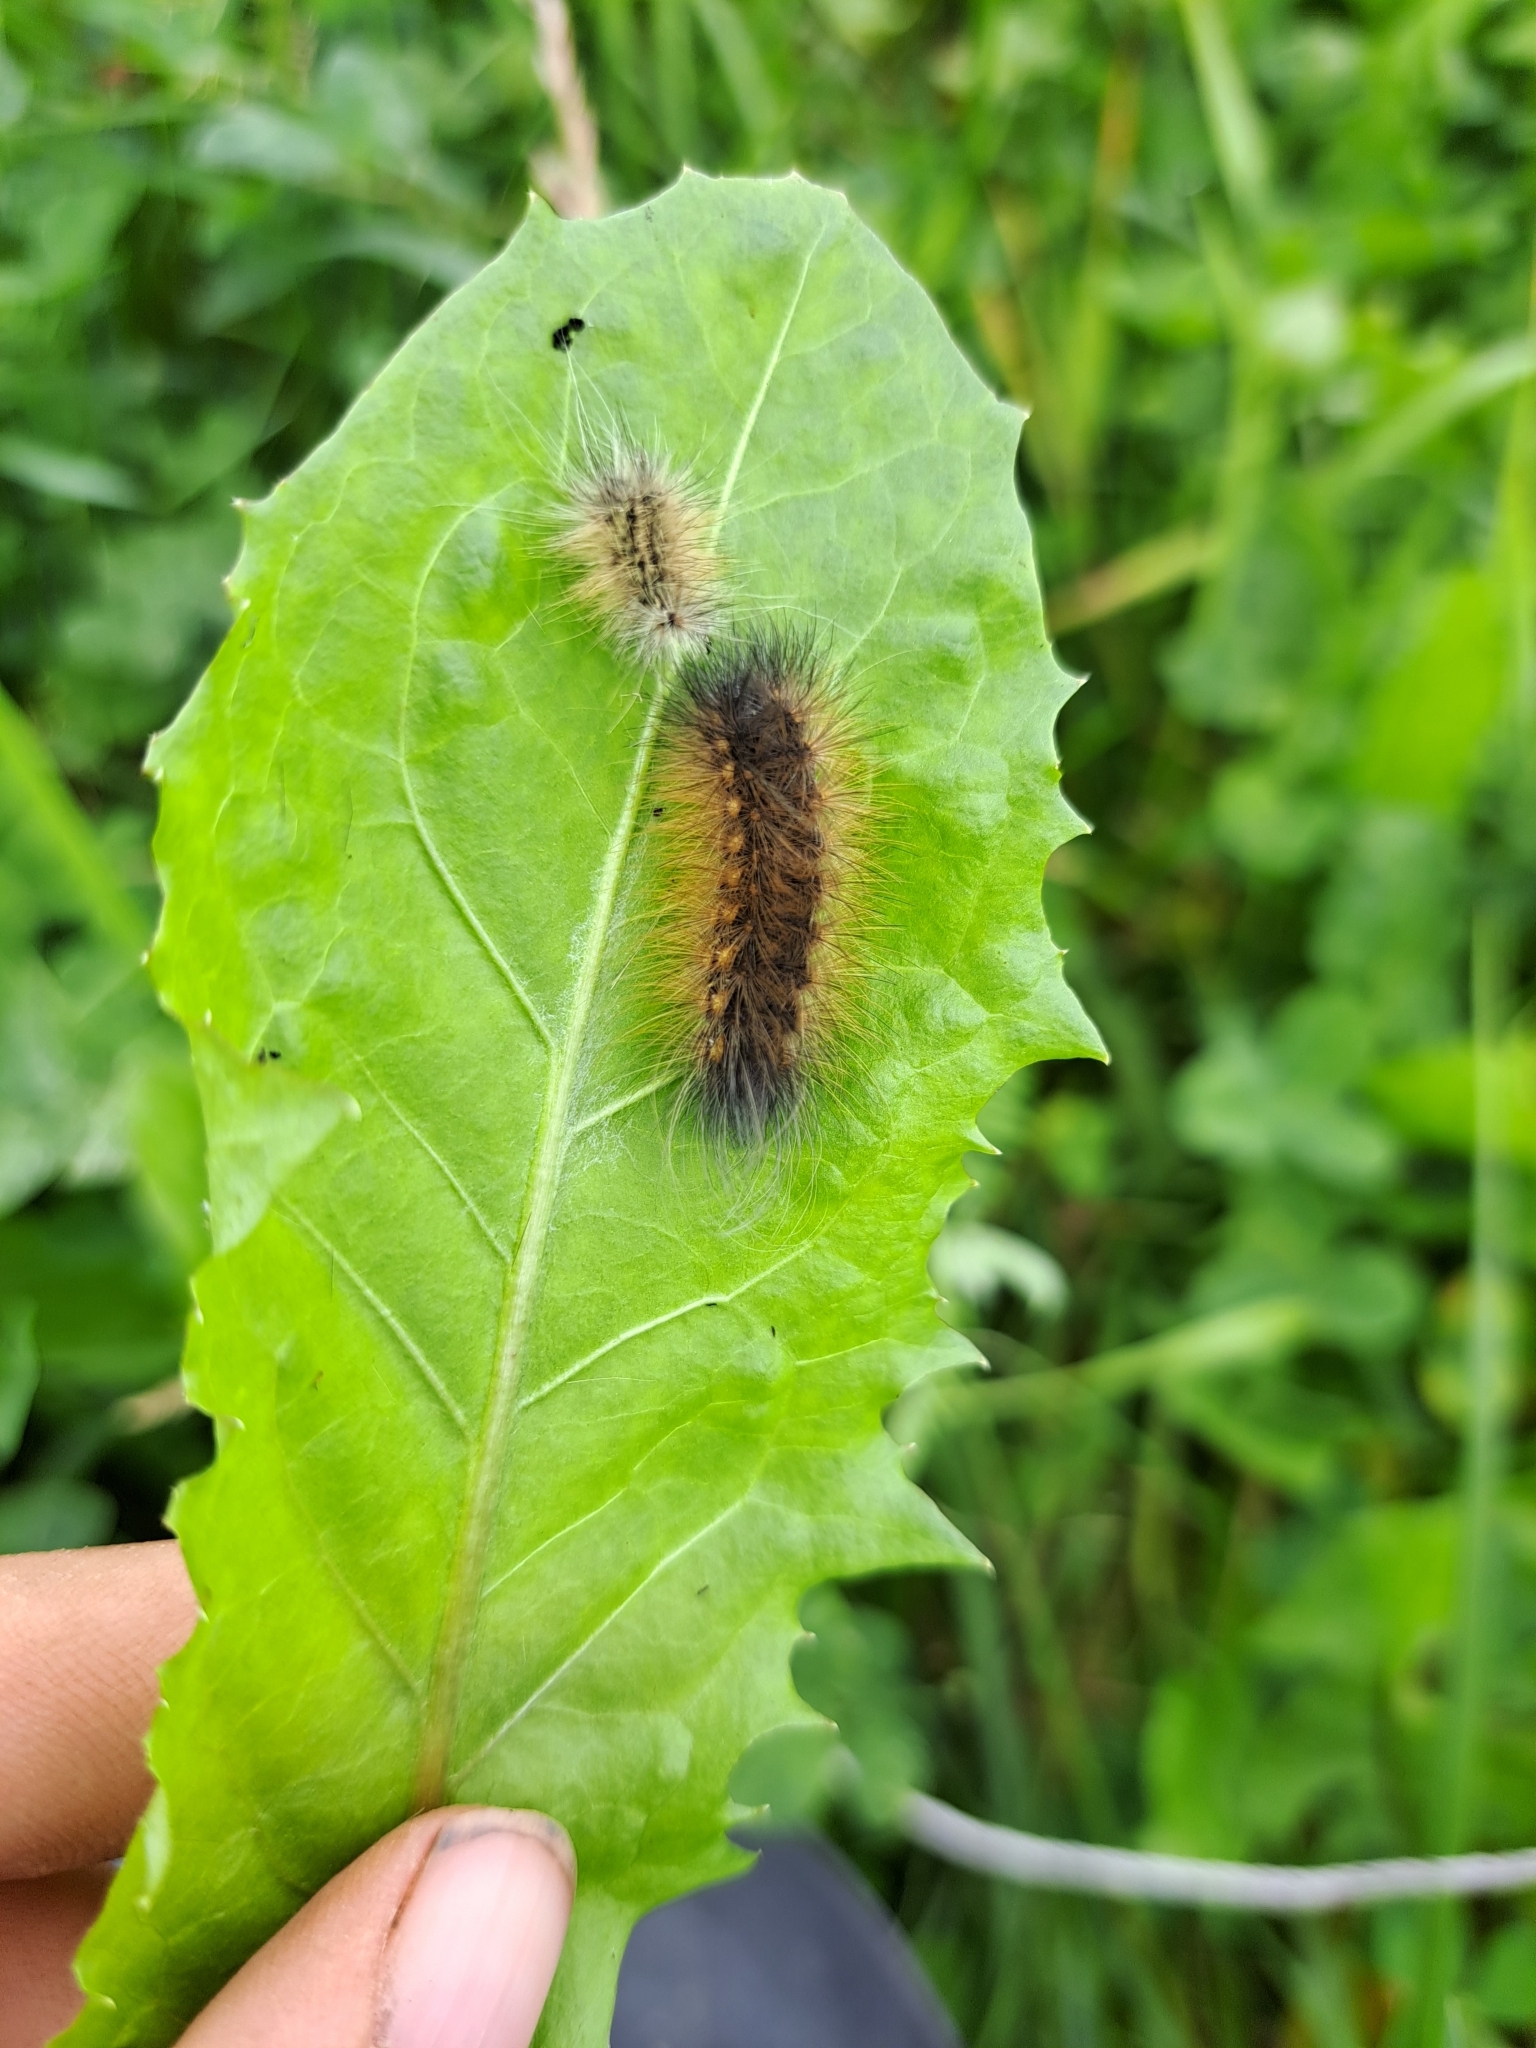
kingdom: Animalia
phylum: Arthropoda
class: Insecta
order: Lepidoptera
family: Erebidae
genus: Estigmene
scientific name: Estigmene acrea
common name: Salt marsh moth
